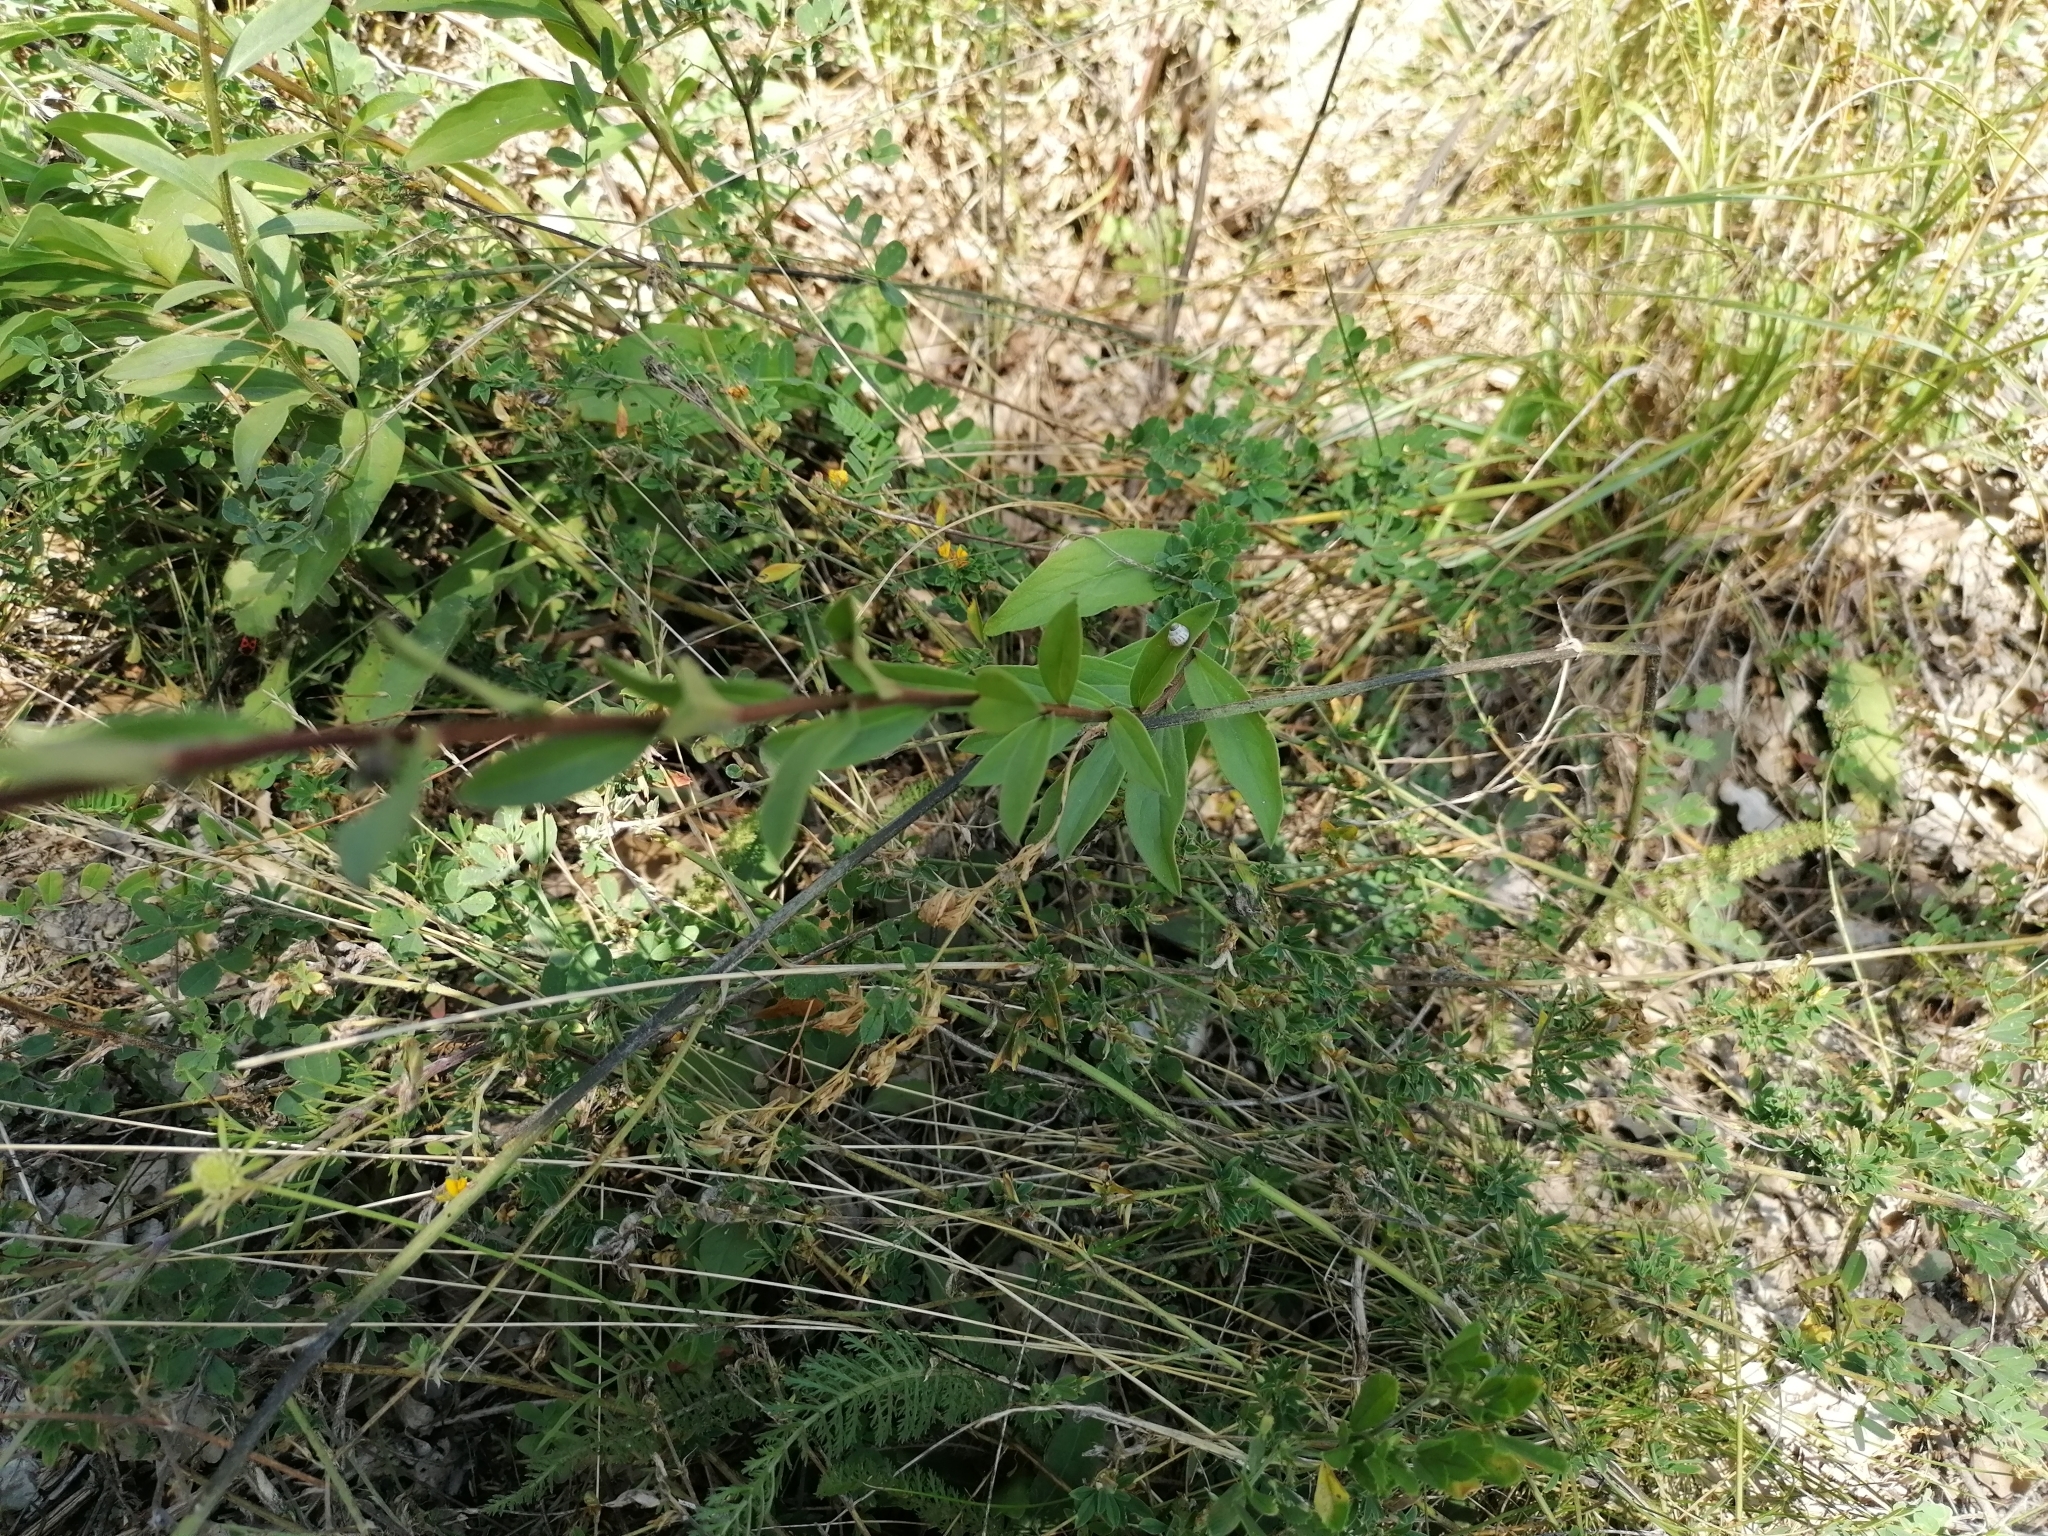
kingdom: Plantae
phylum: Tracheophyta
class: Magnoliopsida
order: Asterales
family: Asteraceae
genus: Aster
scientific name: Aster amellus
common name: European michaelmas daisy
